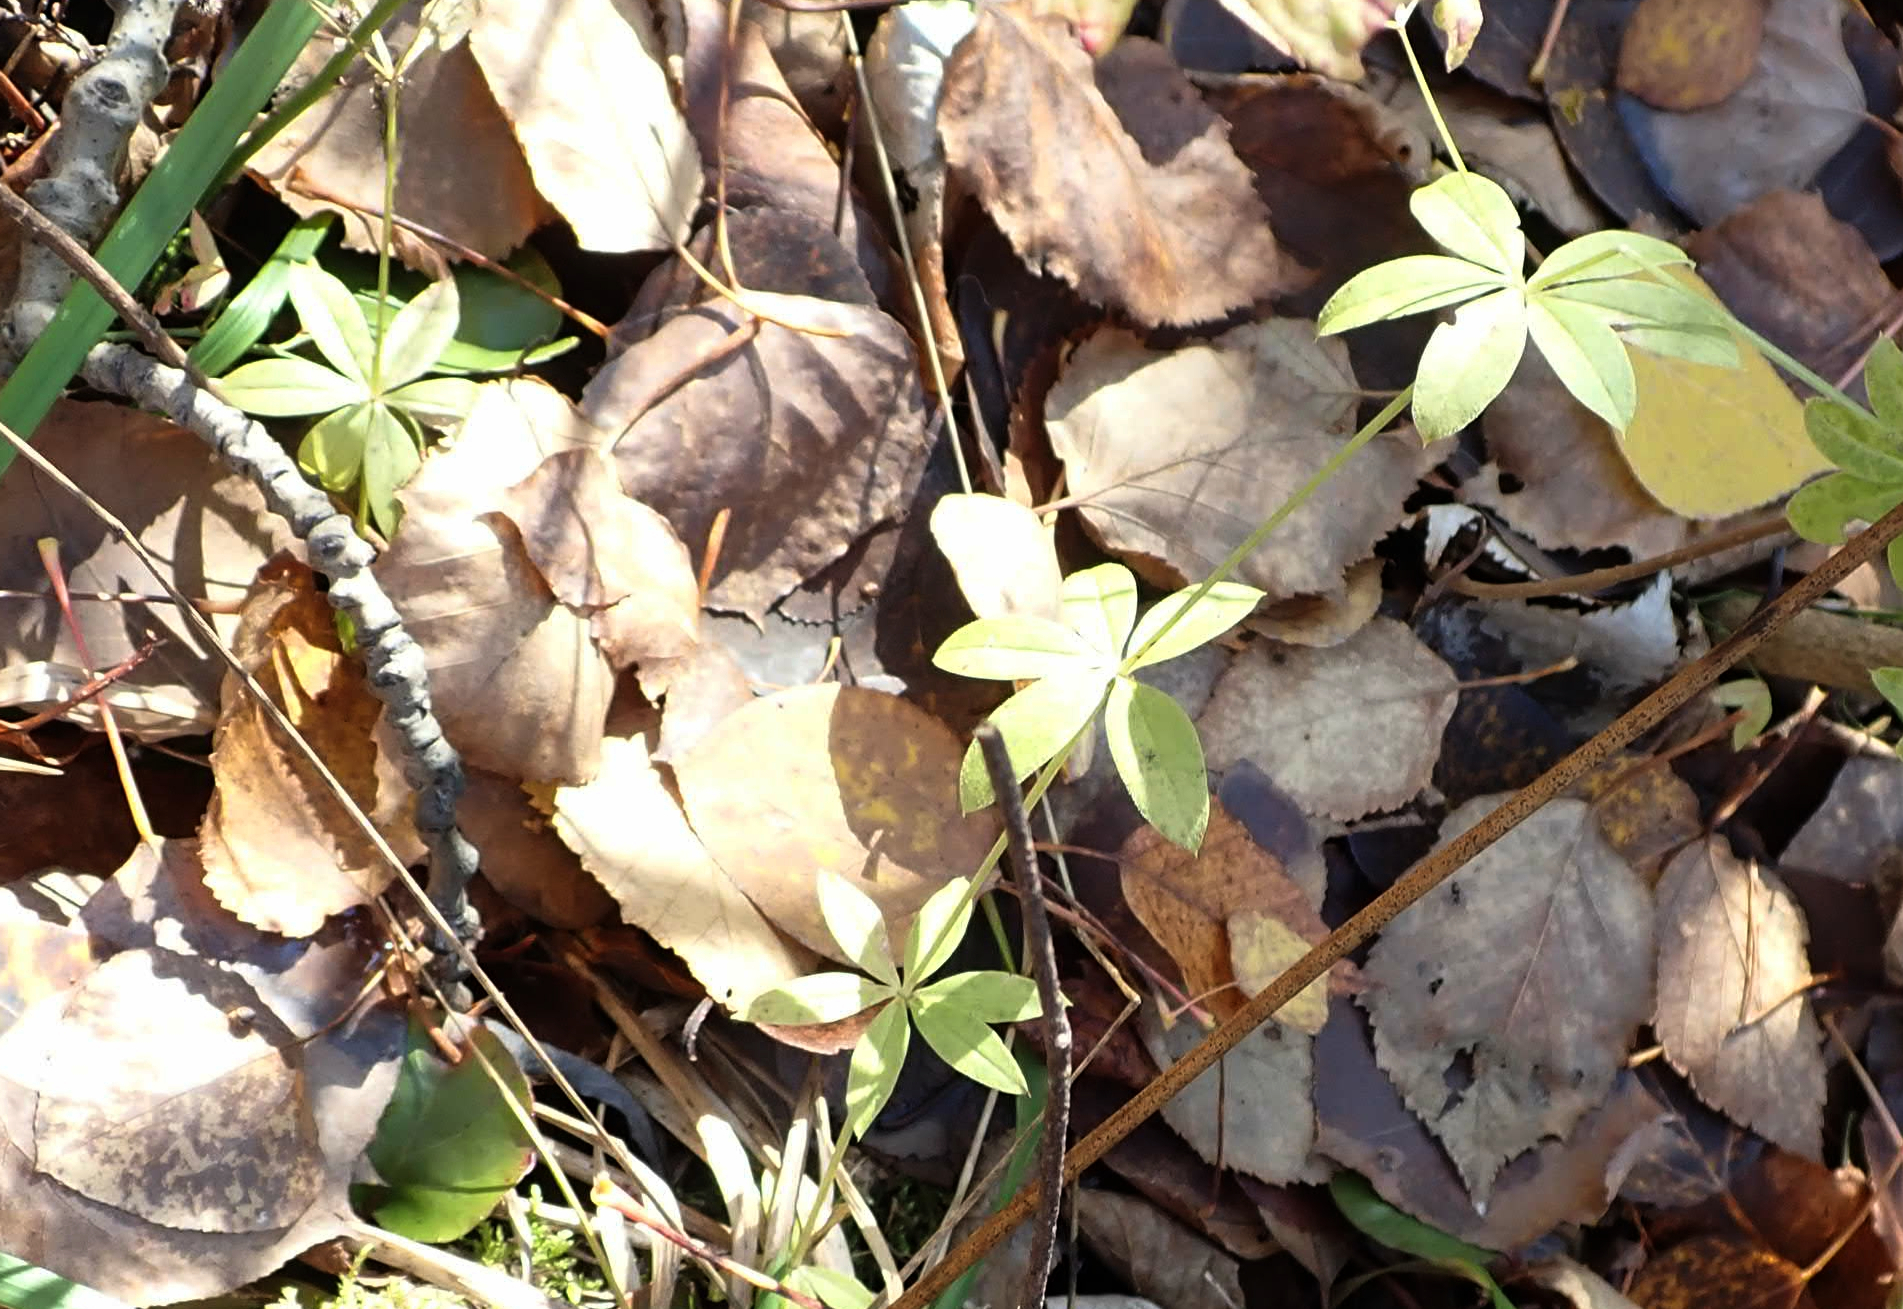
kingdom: Plantae
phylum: Tracheophyta
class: Magnoliopsida
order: Gentianales
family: Rubiaceae
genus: Galium
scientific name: Galium triflorum
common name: Fragrant bedstraw
